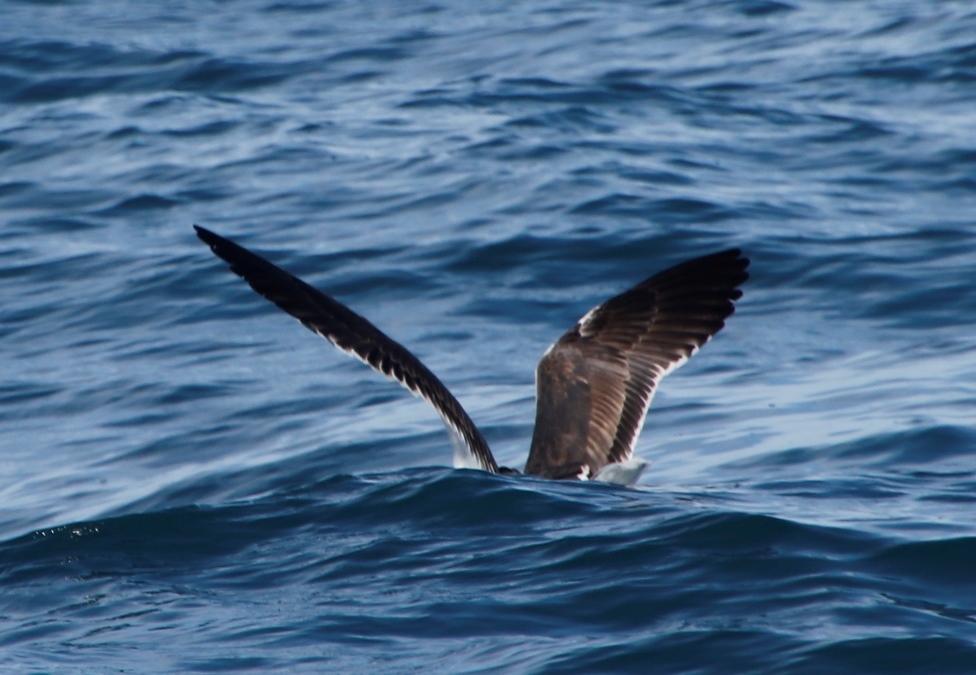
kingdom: Animalia
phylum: Chordata
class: Aves
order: Charadriiformes
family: Laridae
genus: Larus
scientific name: Larus dominicanus
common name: Kelp gull
